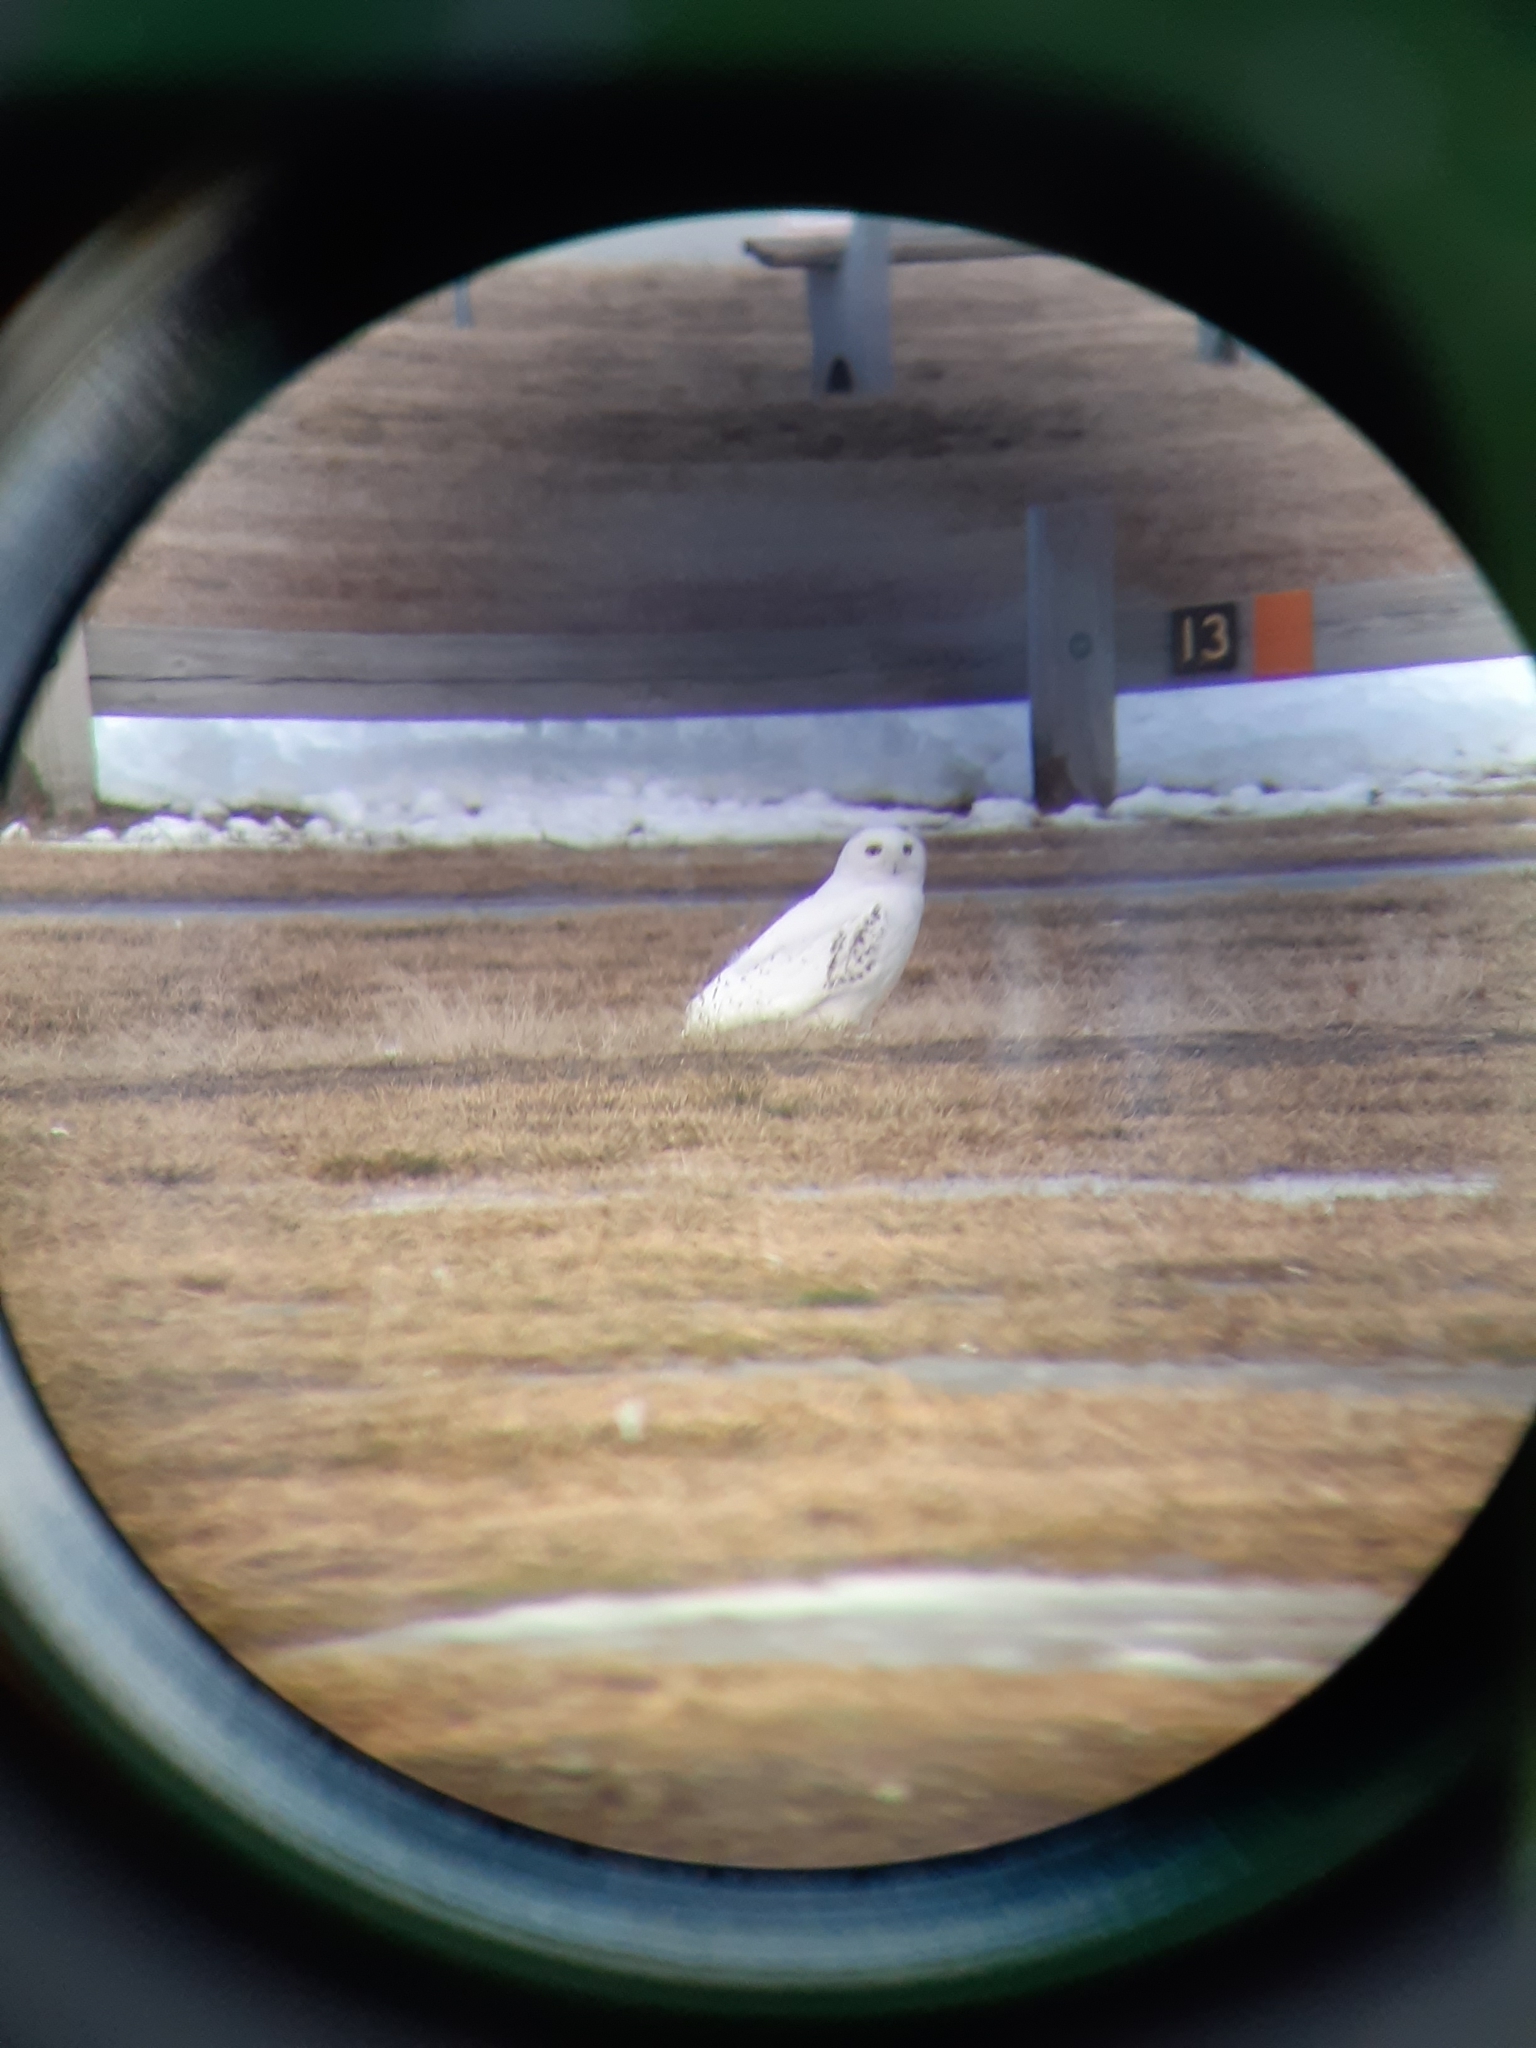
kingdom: Animalia
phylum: Chordata
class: Aves
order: Strigiformes
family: Strigidae
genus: Bubo
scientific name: Bubo scandiacus
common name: Snowy owl
